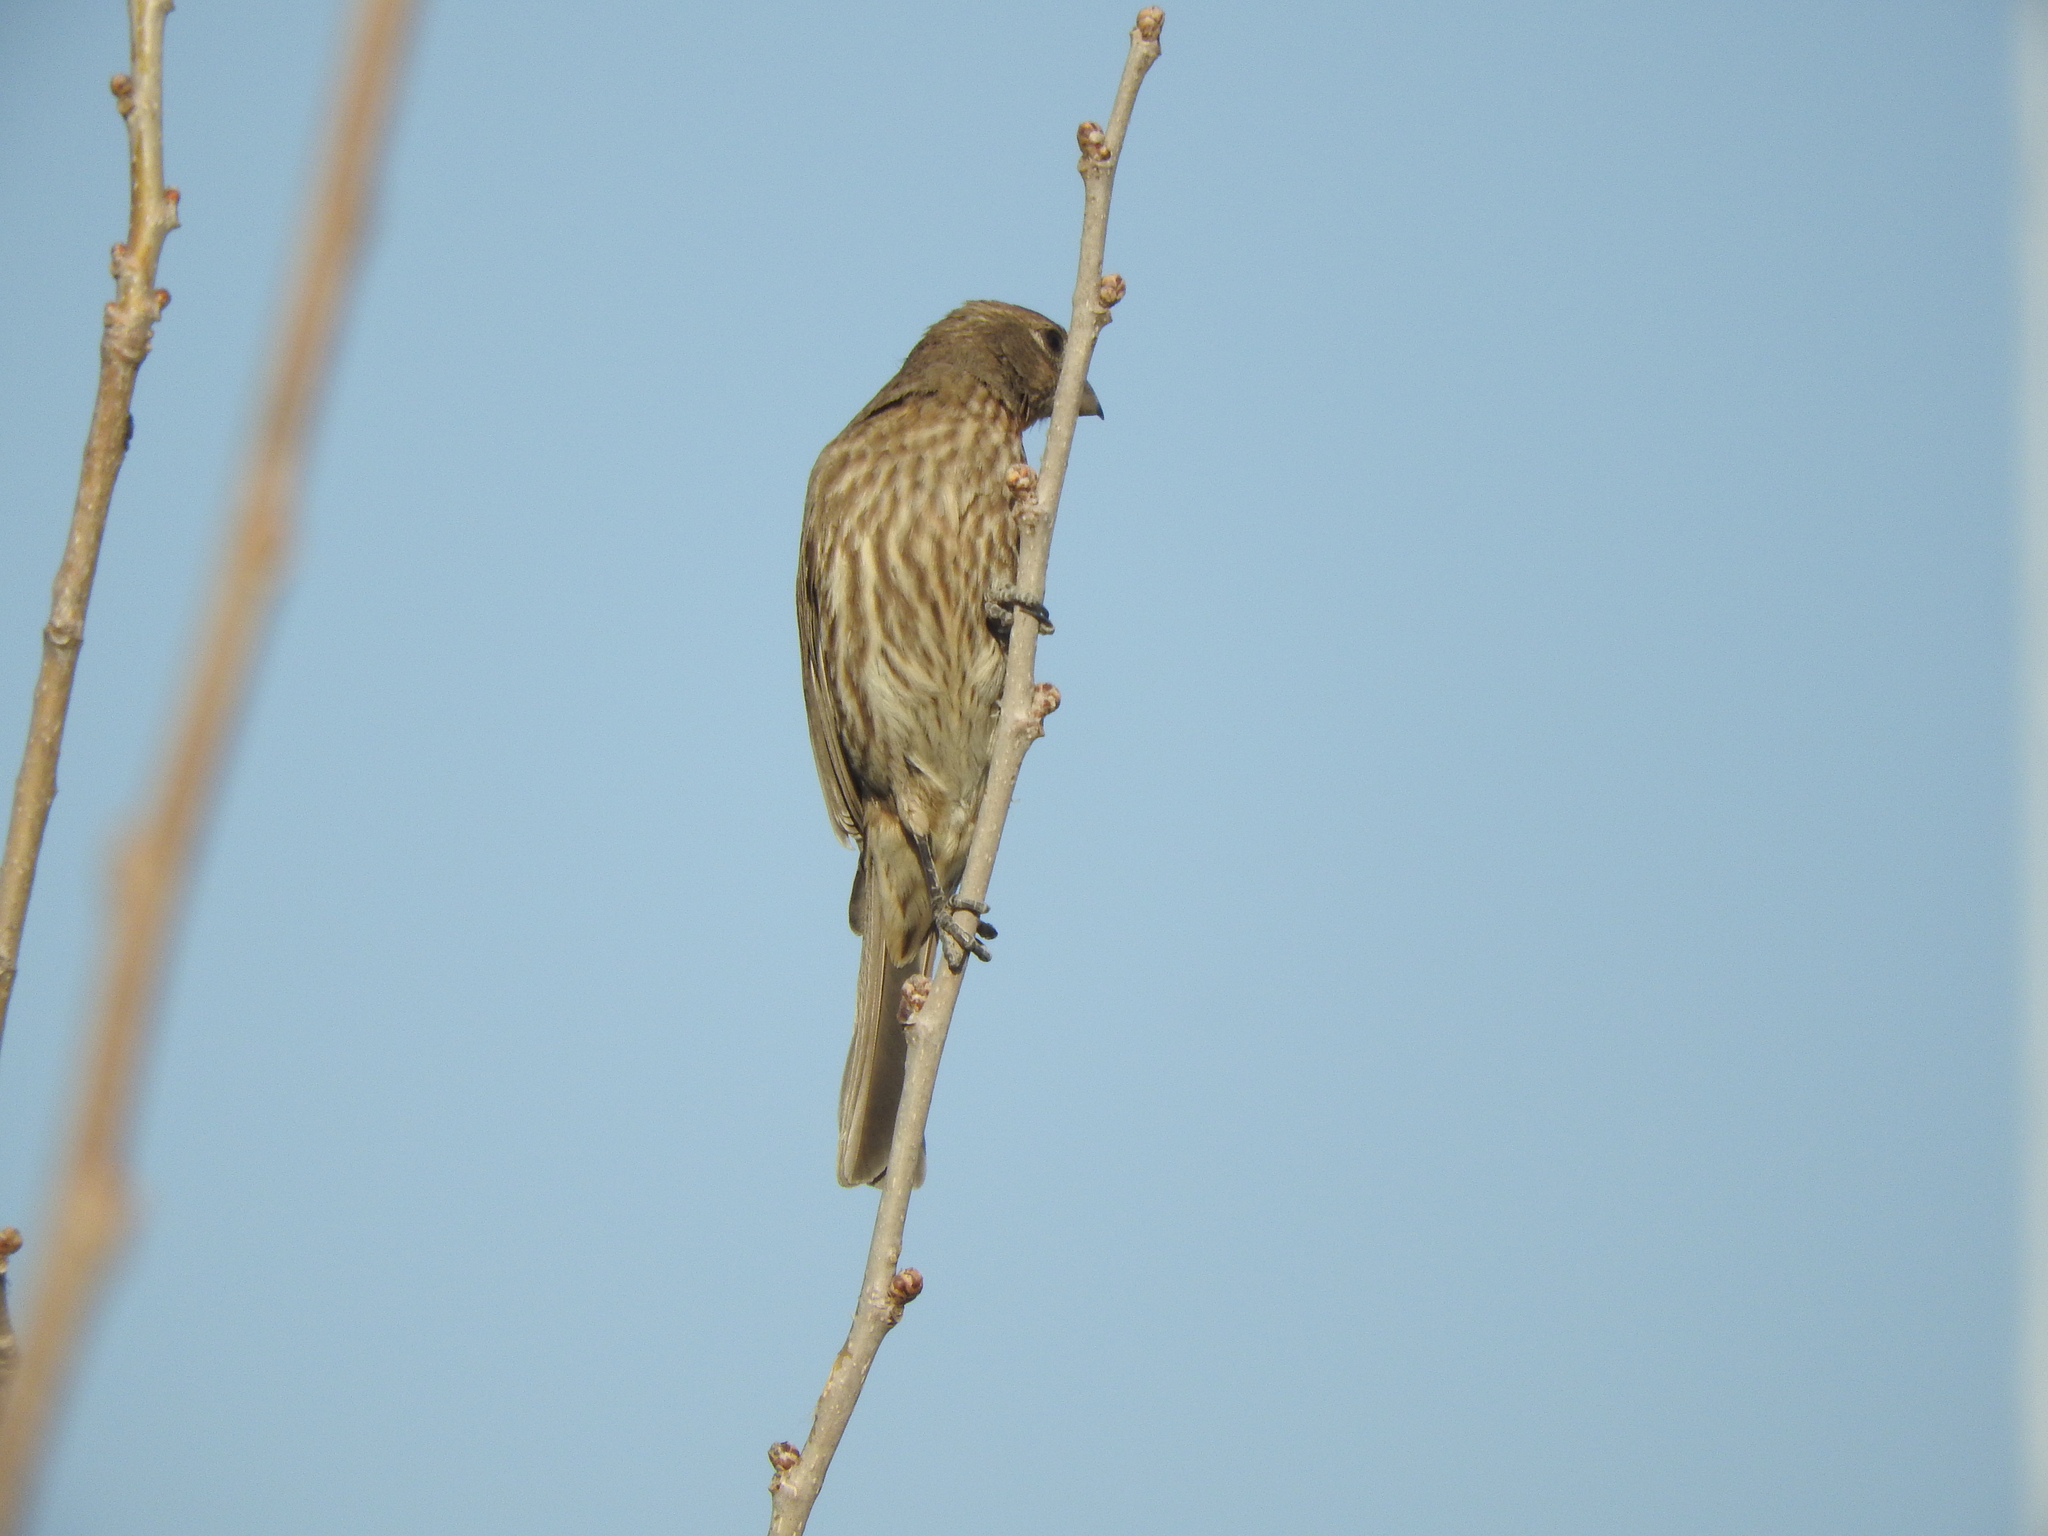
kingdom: Animalia
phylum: Chordata
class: Aves
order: Passeriformes
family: Fringillidae
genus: Haemorhous
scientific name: Haemorhous mexicanus
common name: House finch
